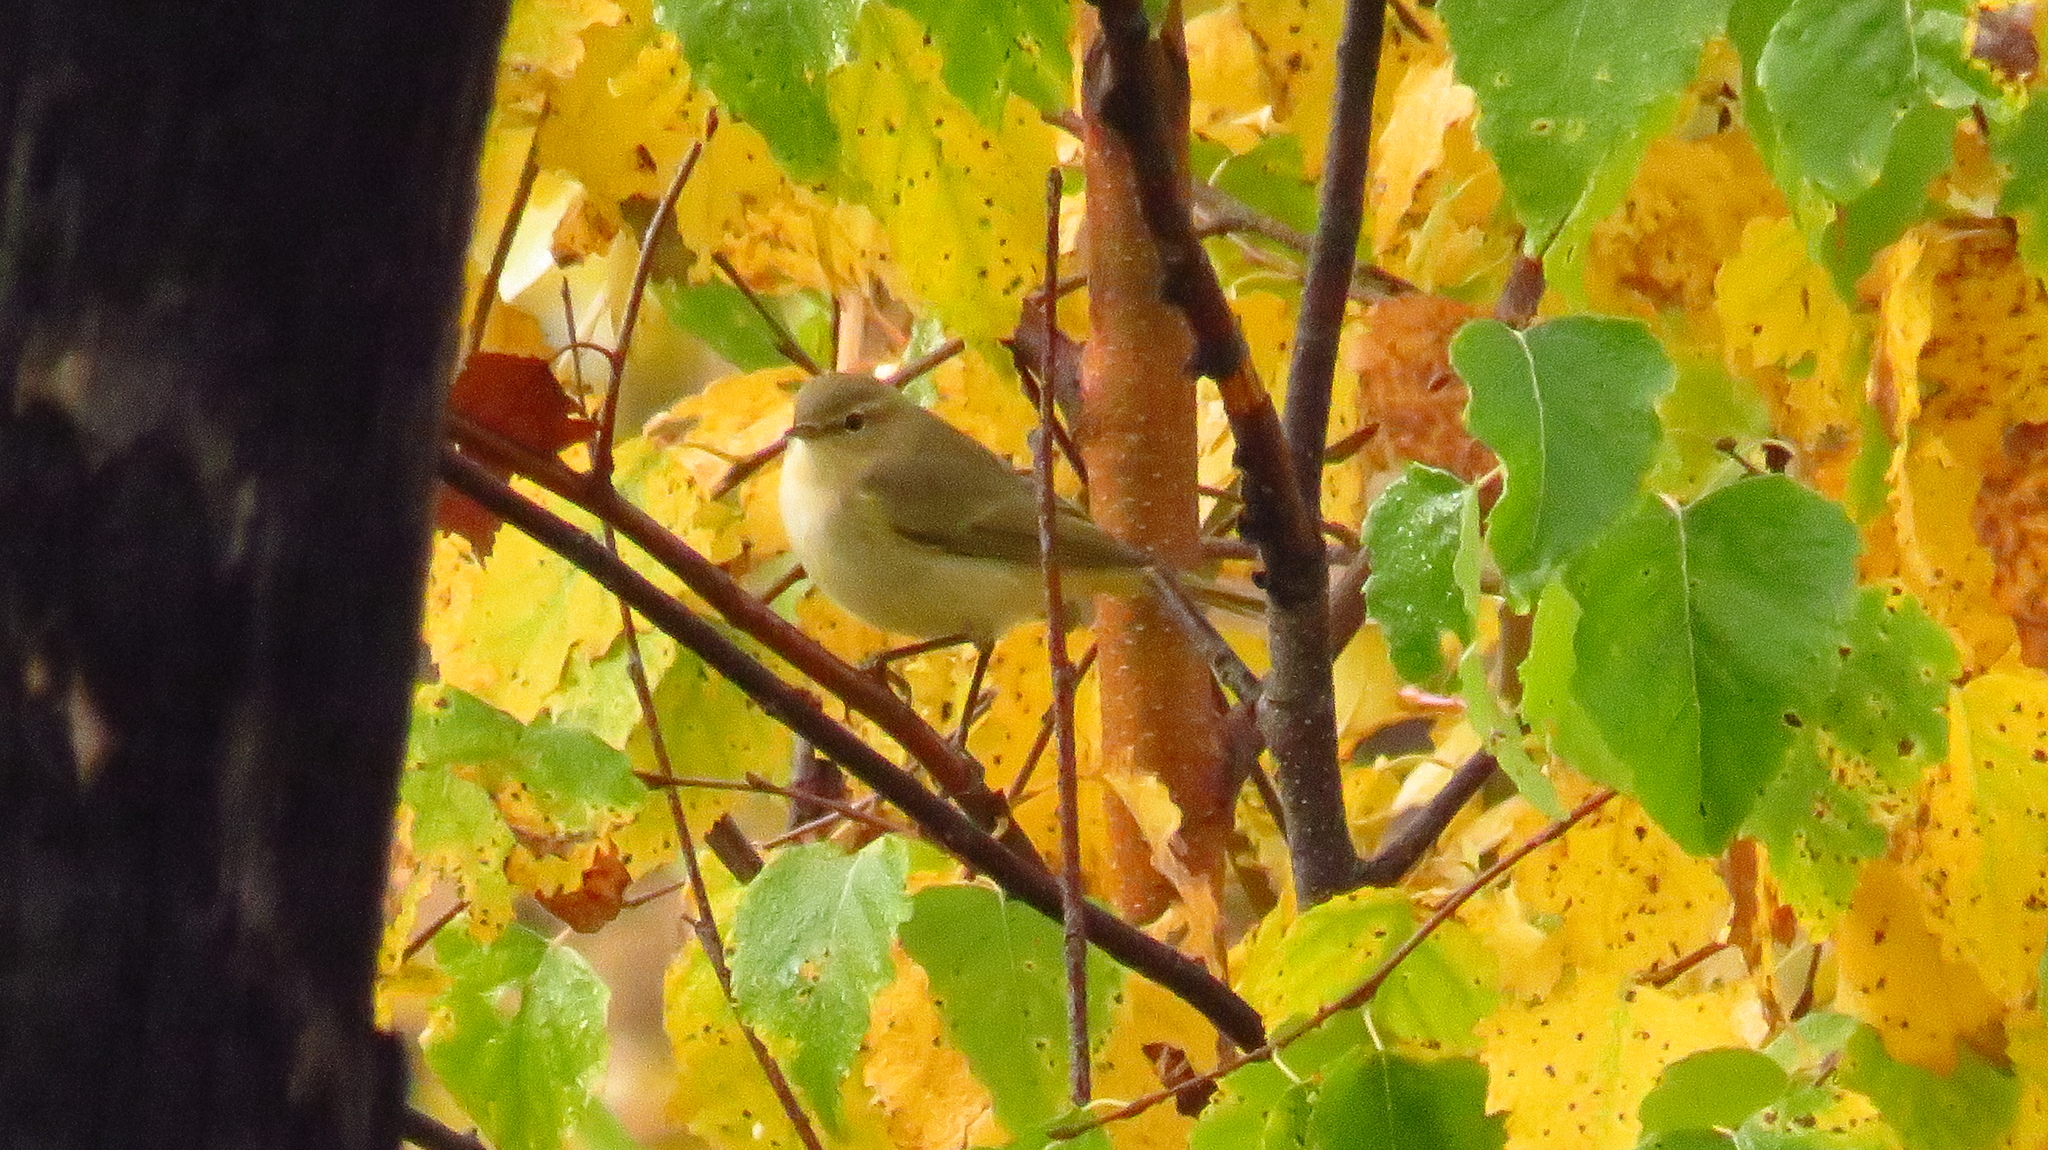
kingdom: Animalia
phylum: Chordata
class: Aves
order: Passeriformes
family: Phylloscopidae
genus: Phylloscopus
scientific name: Phylloscopus collybita
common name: Common chiffchaff
